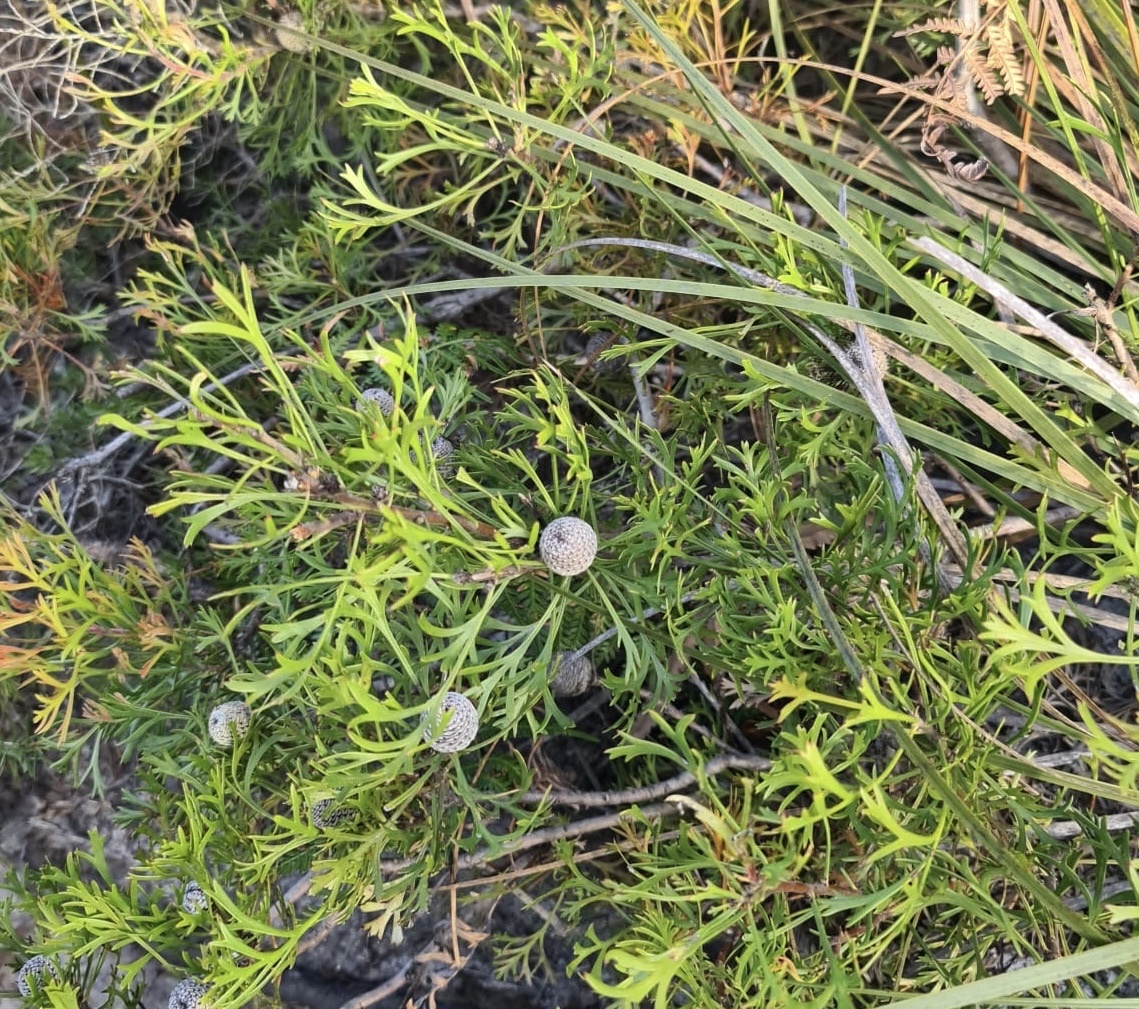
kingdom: Plantae
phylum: Tracheophyta
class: Magnoliopsida
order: Proteales
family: Proteaceae
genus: Isopogon
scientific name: Isopogon anemonifolius
